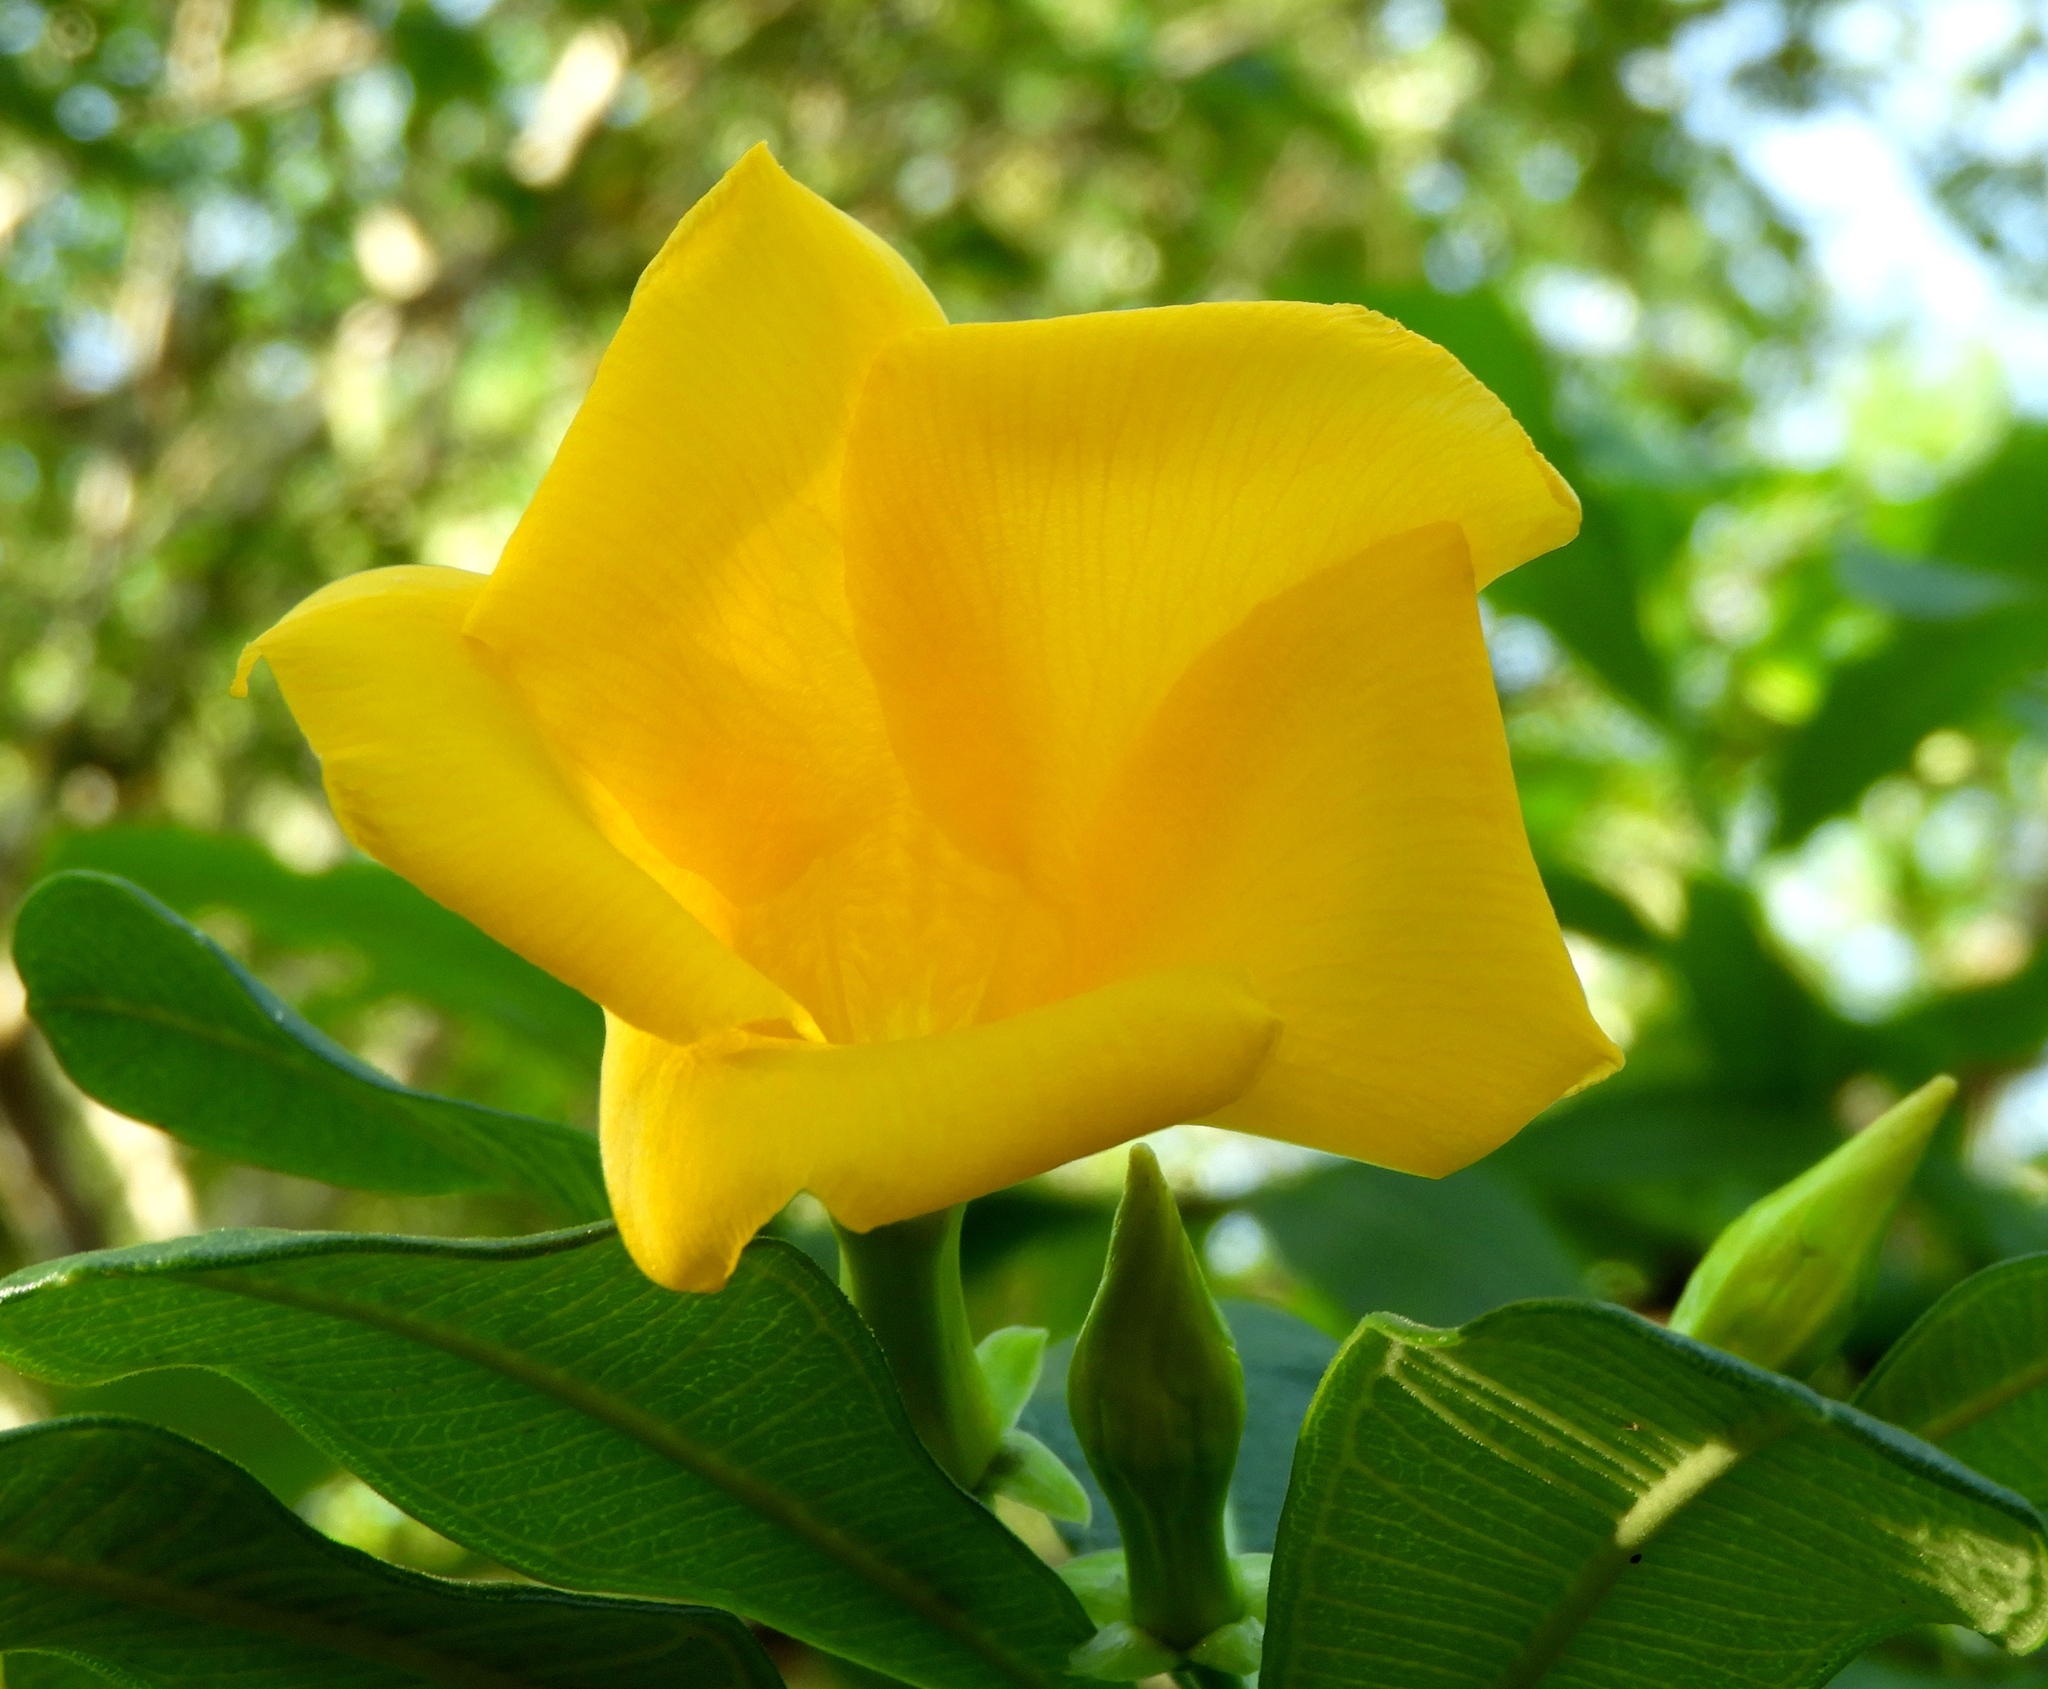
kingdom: Plantae
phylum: Tracheophyta
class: Magnoliopsida
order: Gentianales
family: Apocynaceae
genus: Cascabela
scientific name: Cascabela ovata
